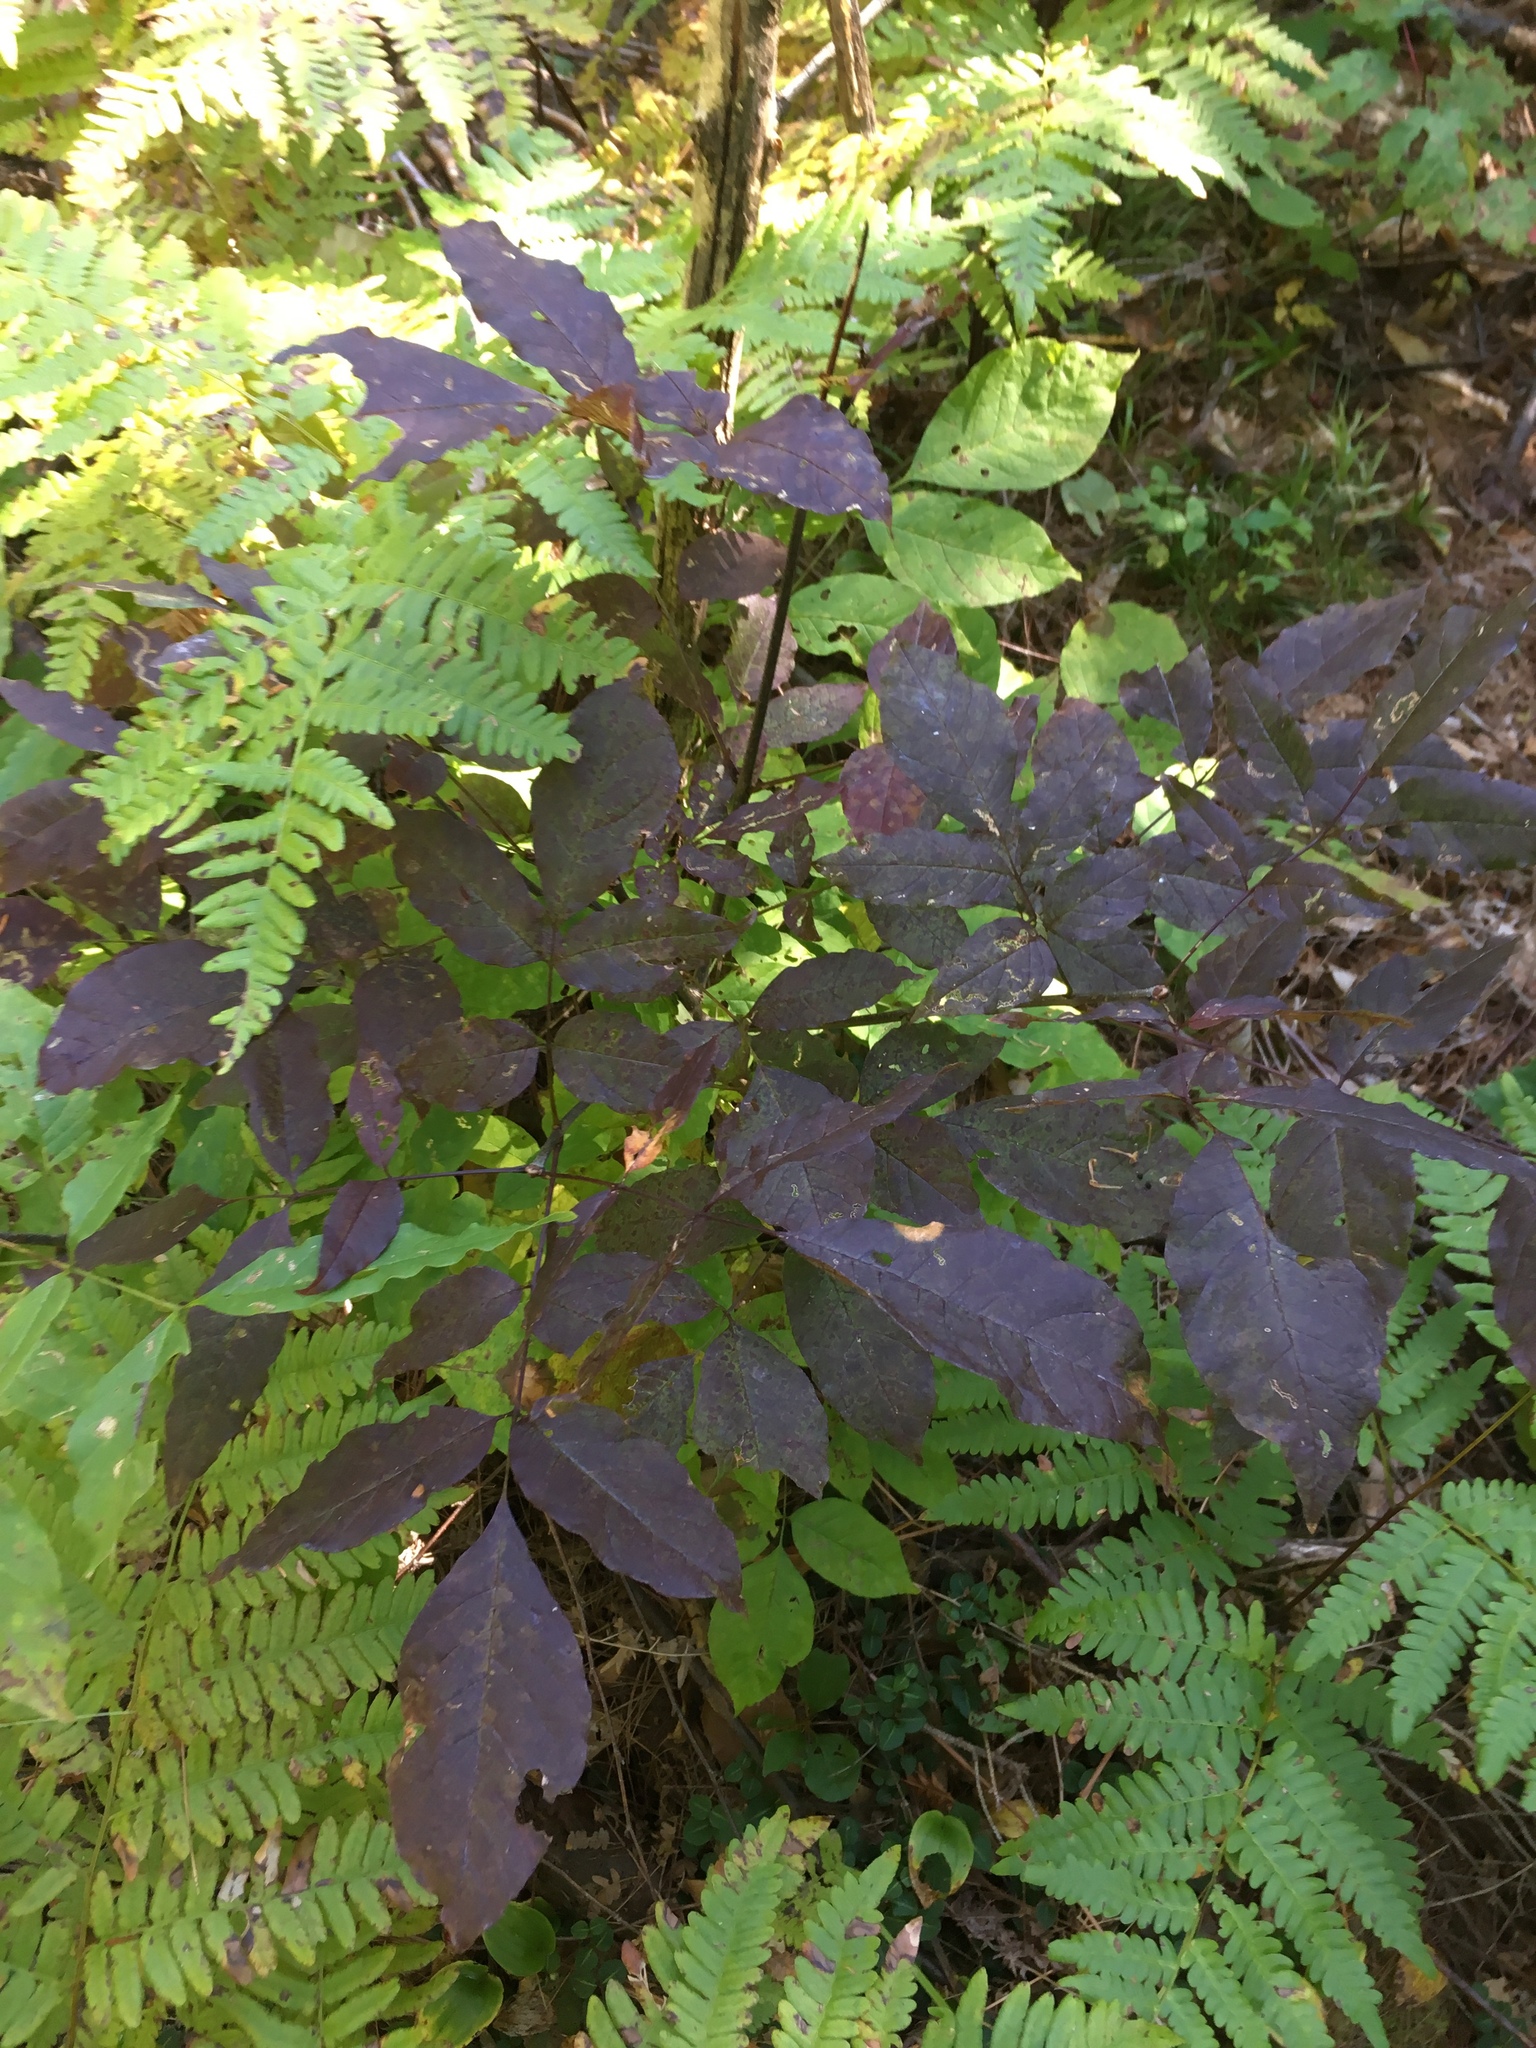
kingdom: Plantae
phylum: Tracheophyta
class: Magnoliopsida
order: Lamiales
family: Oleaceae
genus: Fraxinus
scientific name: Fraxinus americana
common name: White ash
